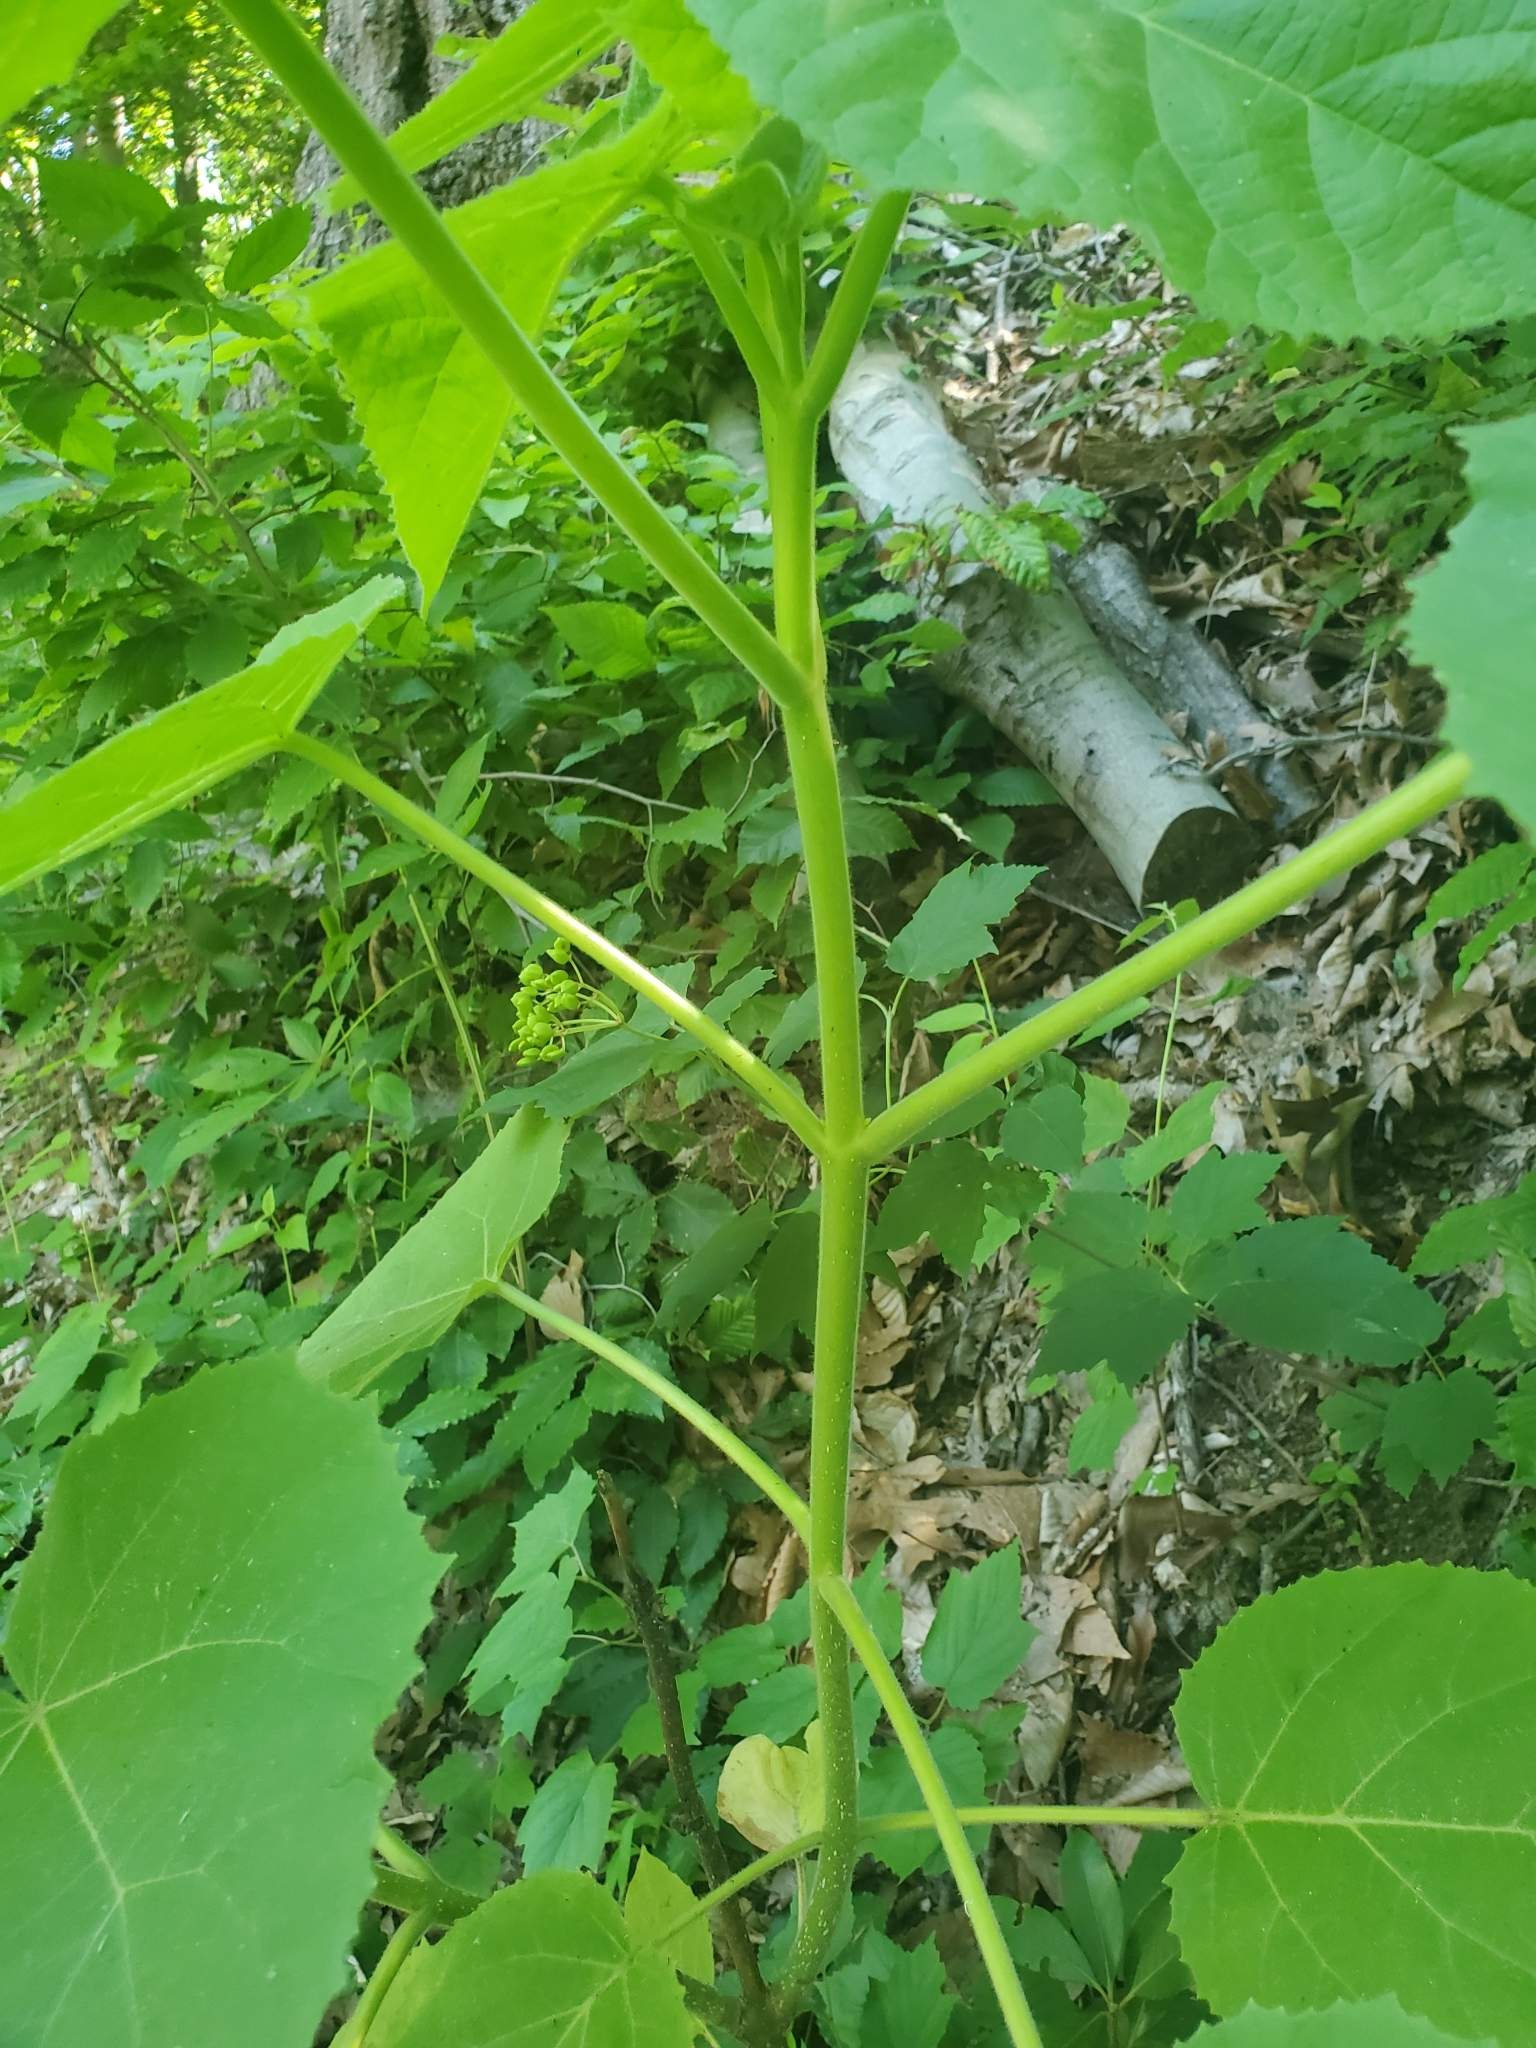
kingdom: Plantae
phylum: Tracheophyta
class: Magnoliopsida
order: Lamiales
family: Paulowniaceae
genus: Paulownia
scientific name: Paulownia tomentosa
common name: Foxglove-tree
